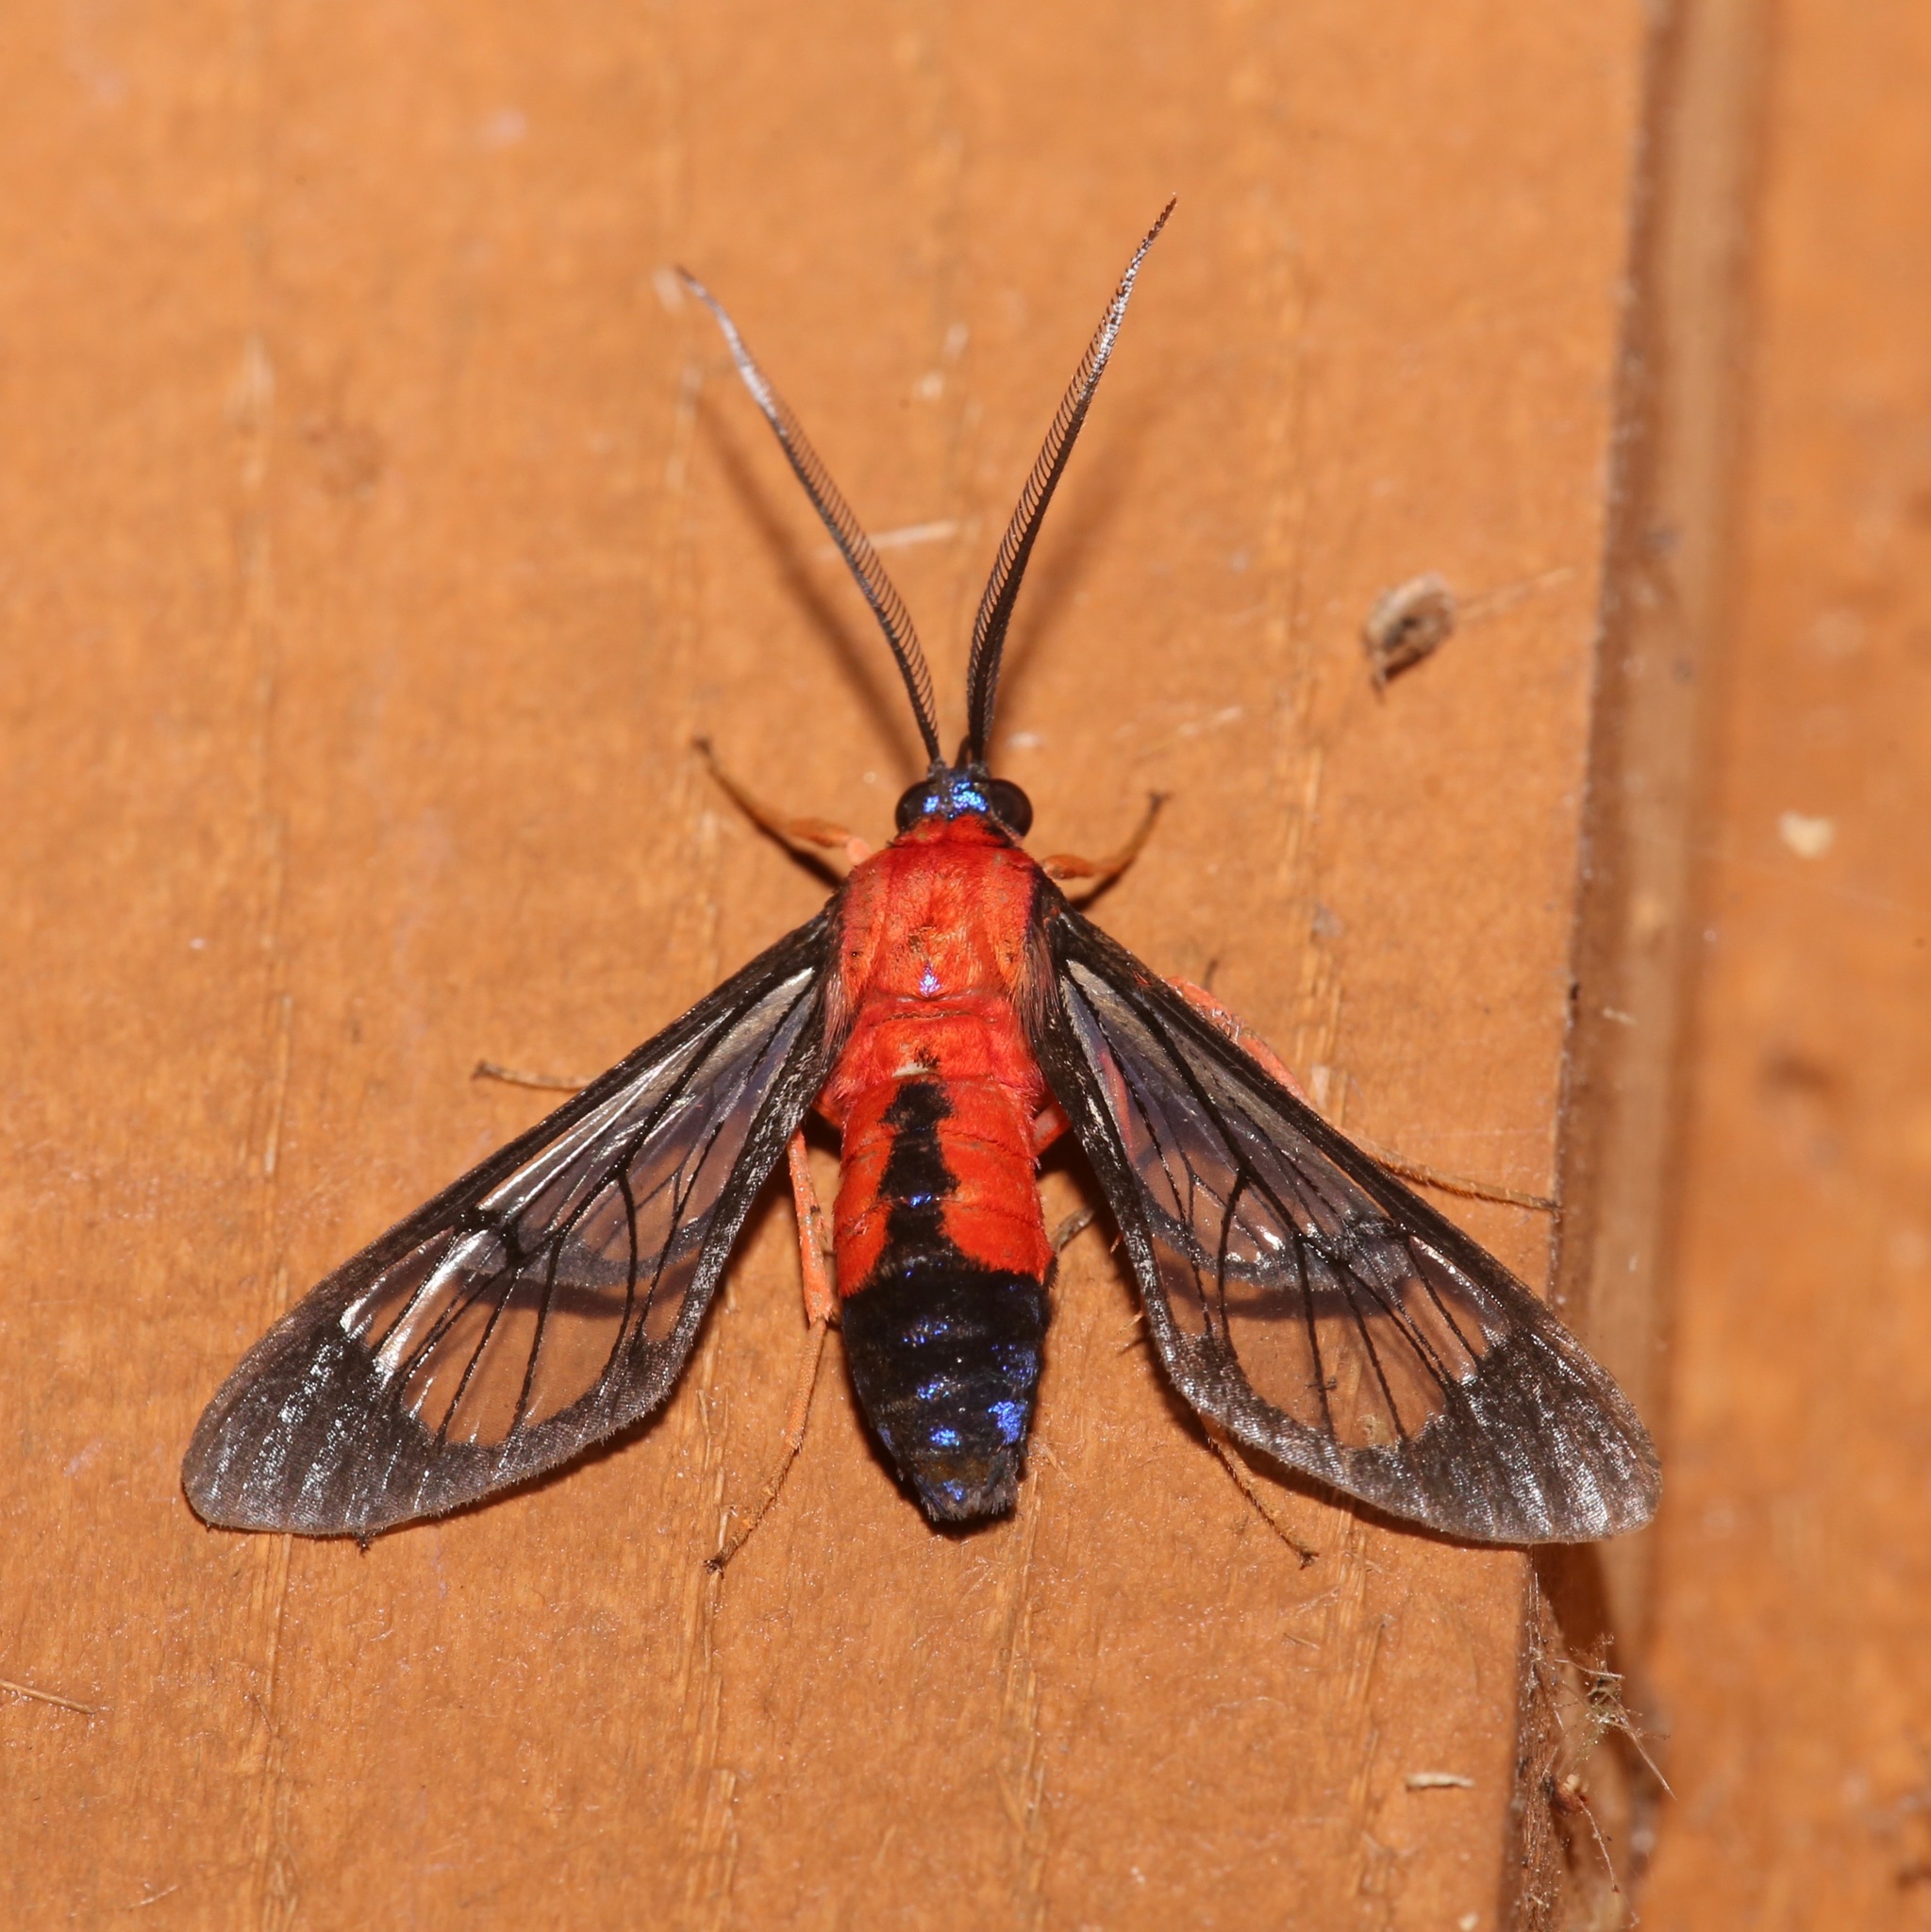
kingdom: Animalia
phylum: Arthropoda
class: Insecta
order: Lepidoptera
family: Erebidae
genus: Cosmosoma
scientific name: Cosmosoma myrodora
